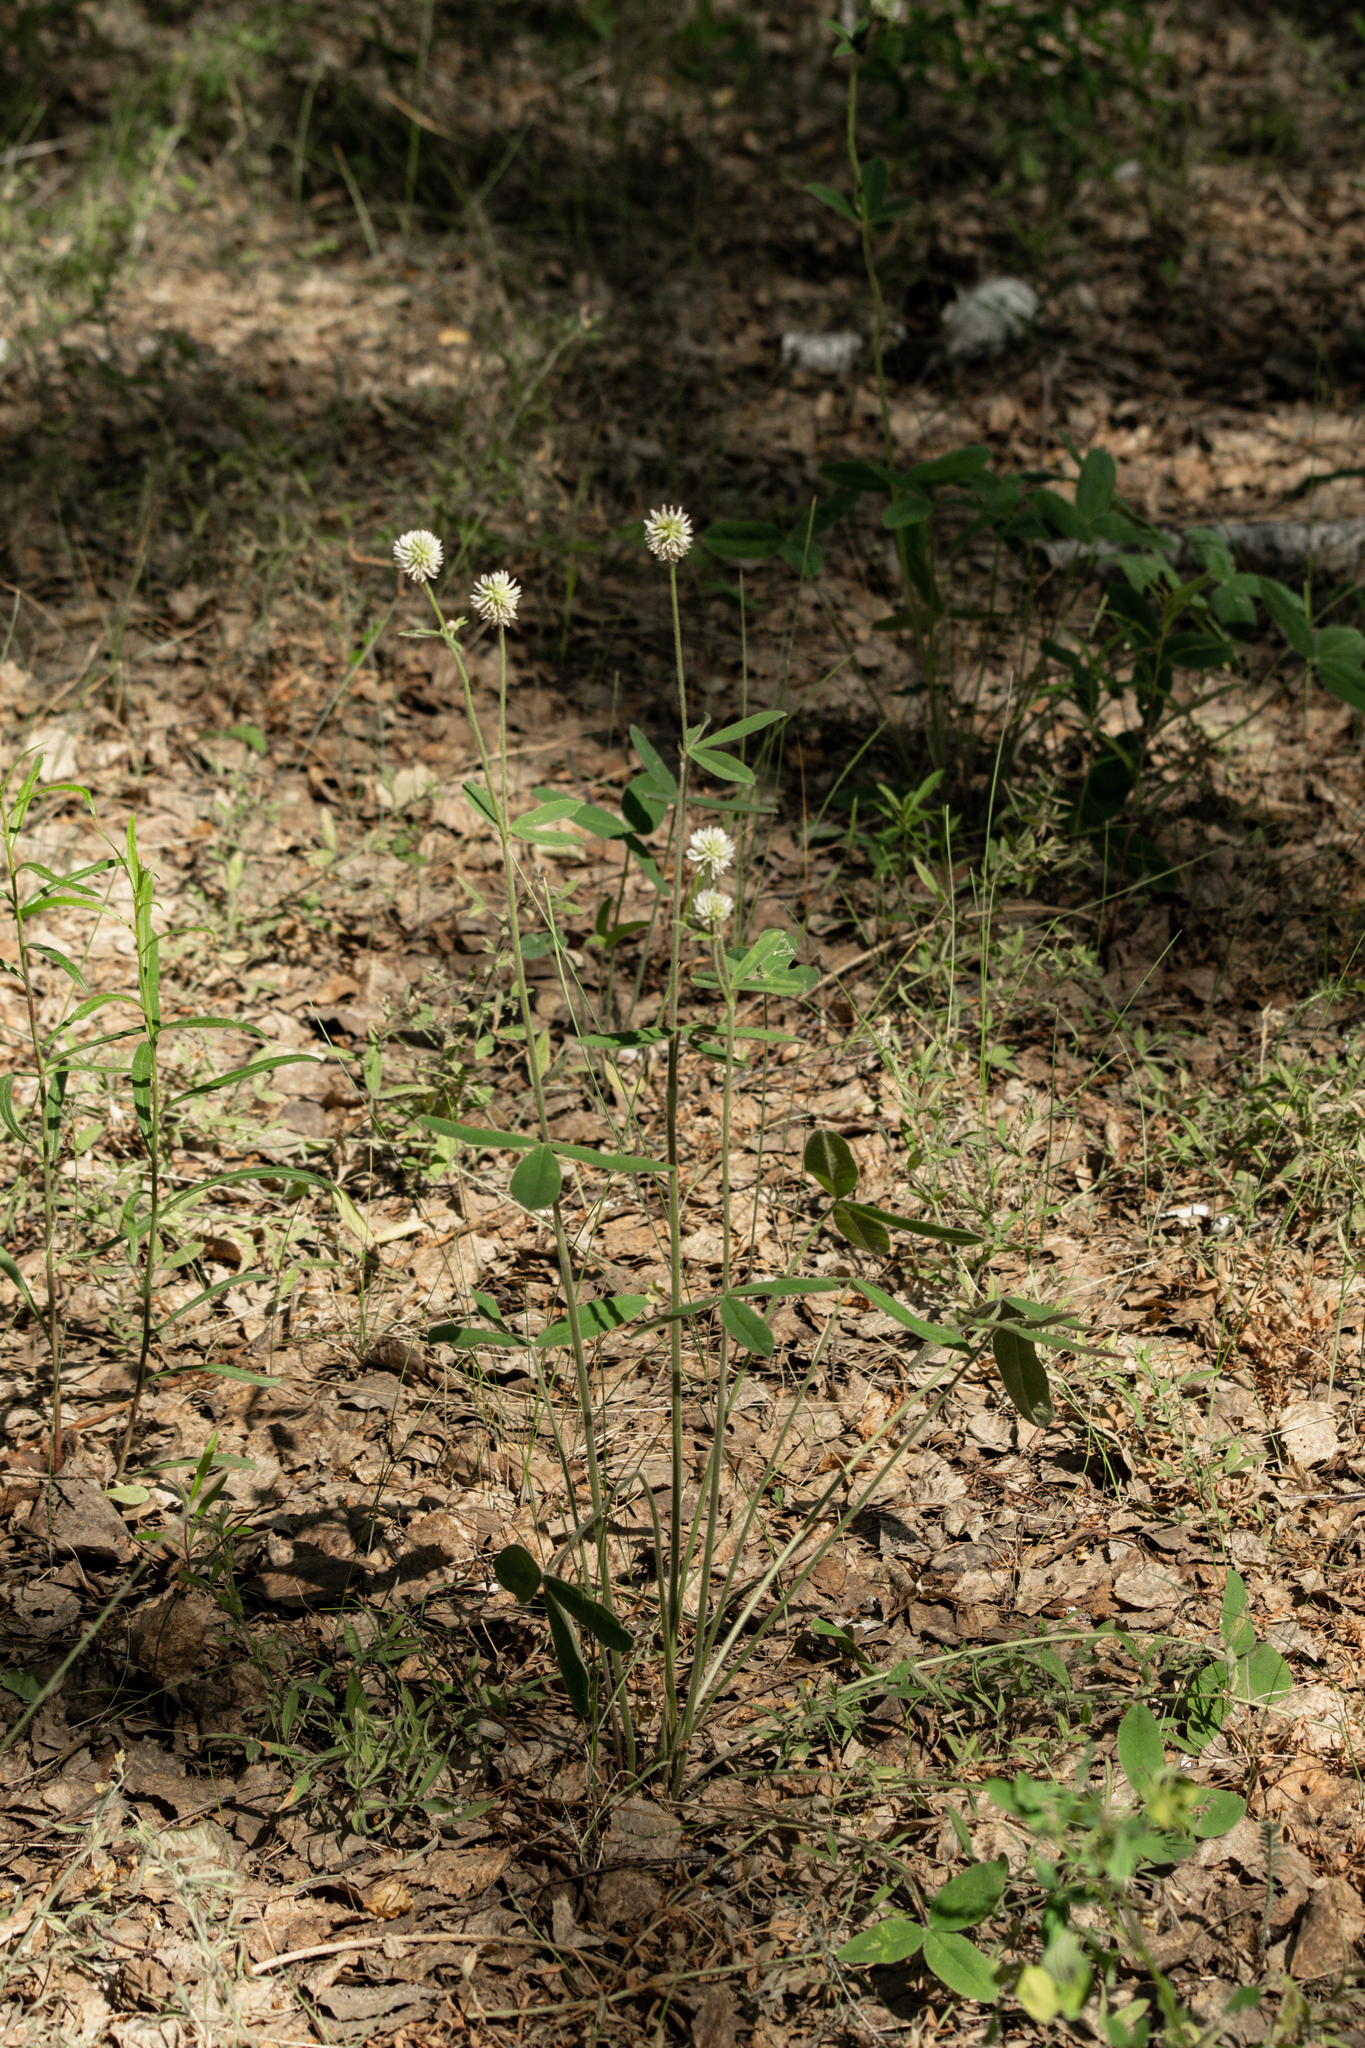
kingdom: Plantae
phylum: Tracheophyta
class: Magnoliopsida
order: Fabales
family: Fabaceae
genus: Trifolium
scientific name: Trifolium montanum
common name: Mountain clover
